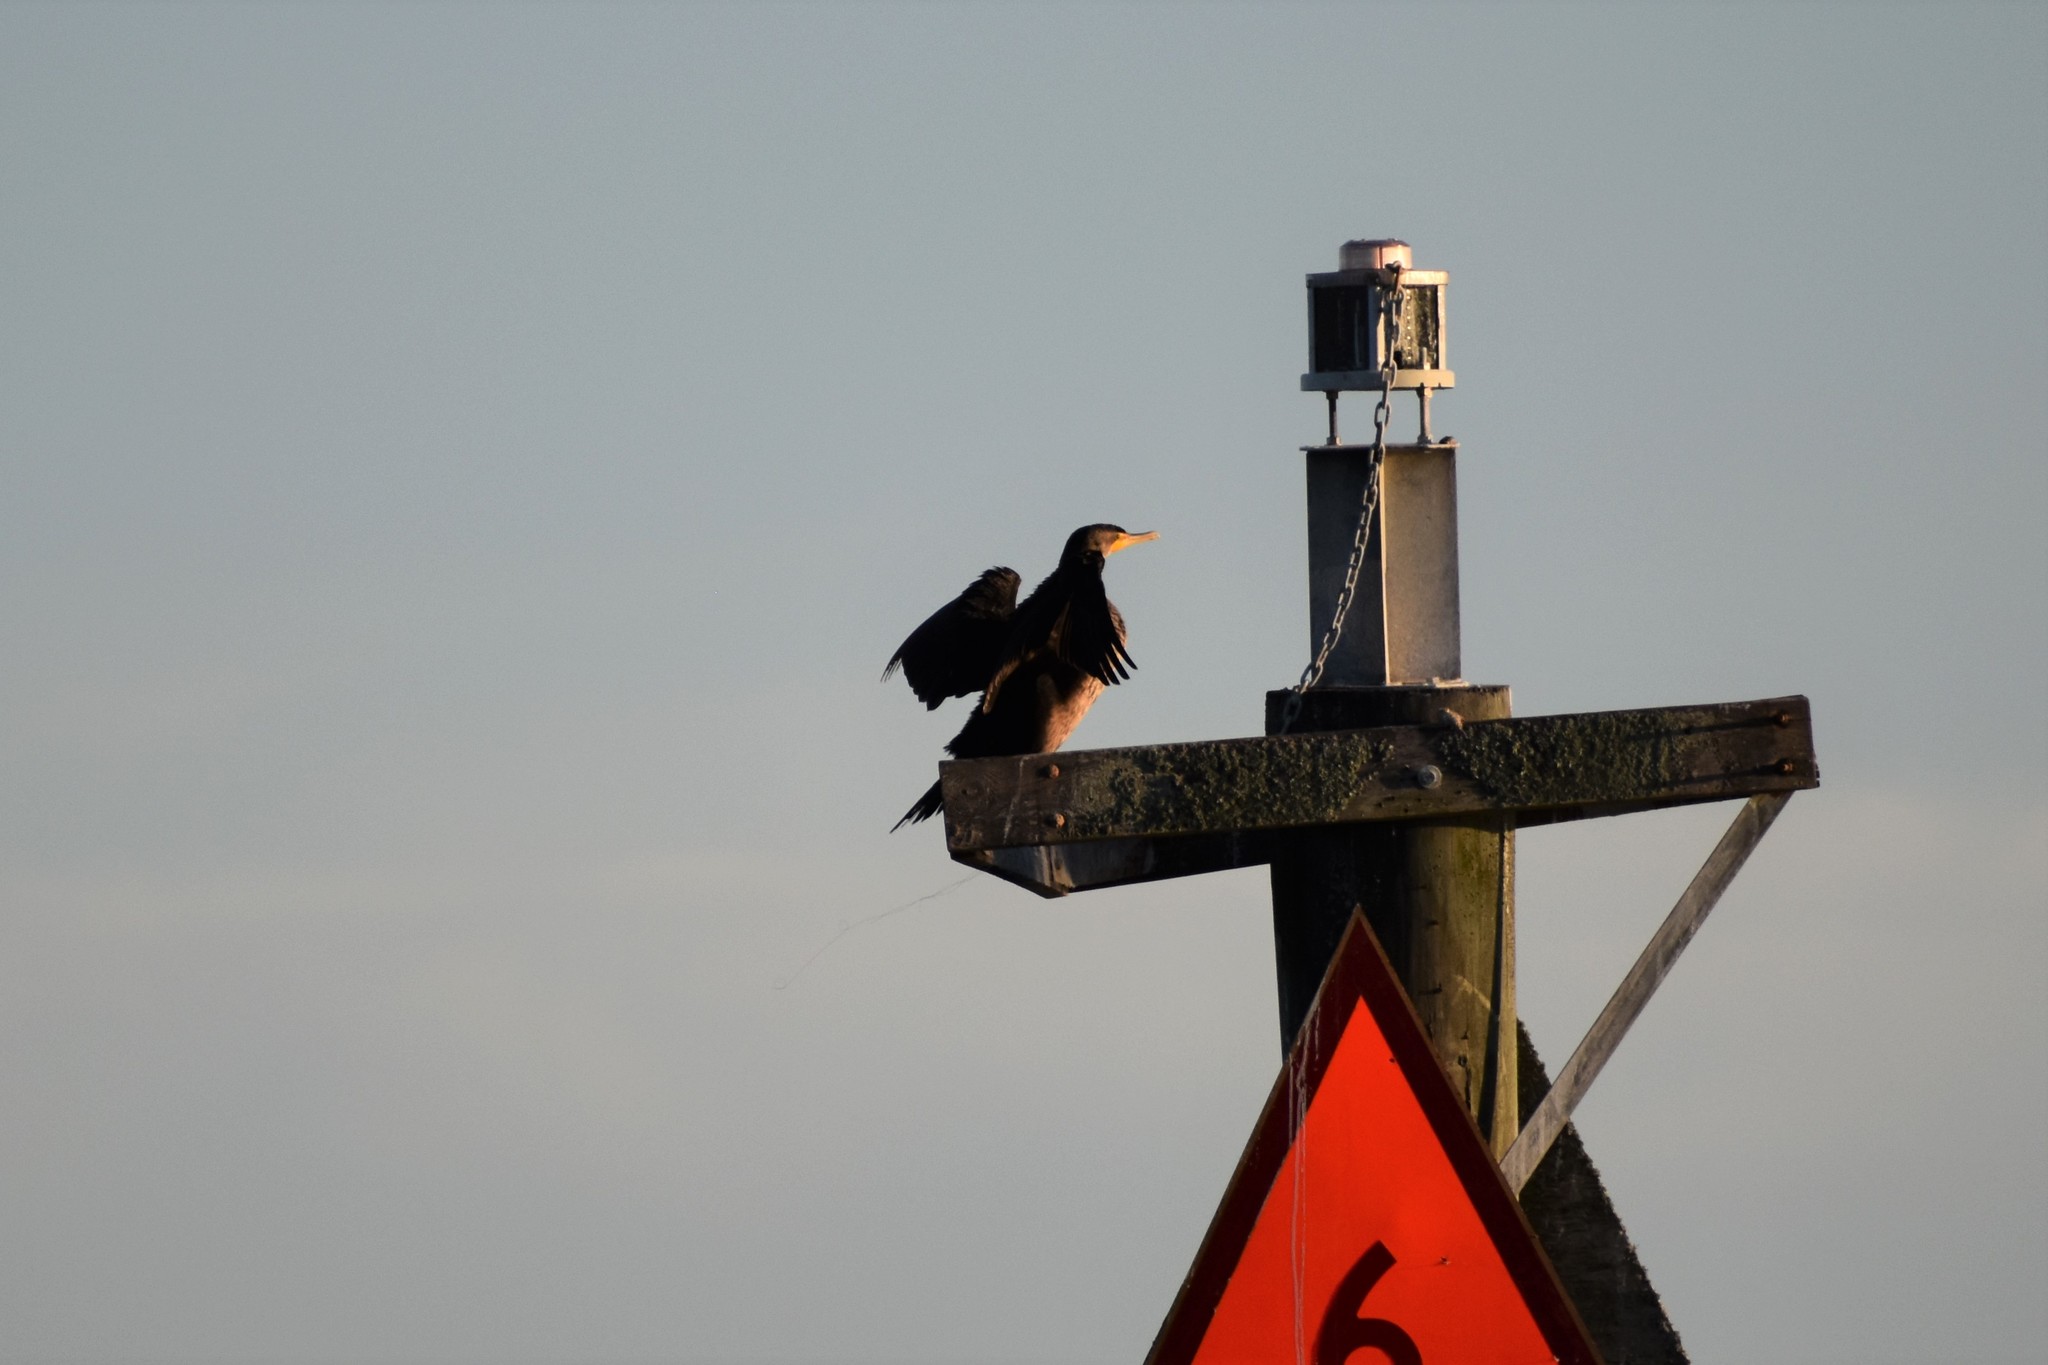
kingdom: Animalia
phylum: Chordata
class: Aves
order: Suliformes
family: Phalacrocoracidae
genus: Phalacrocorax
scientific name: Phalacrocorax auritus
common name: Double-crested cormorant
